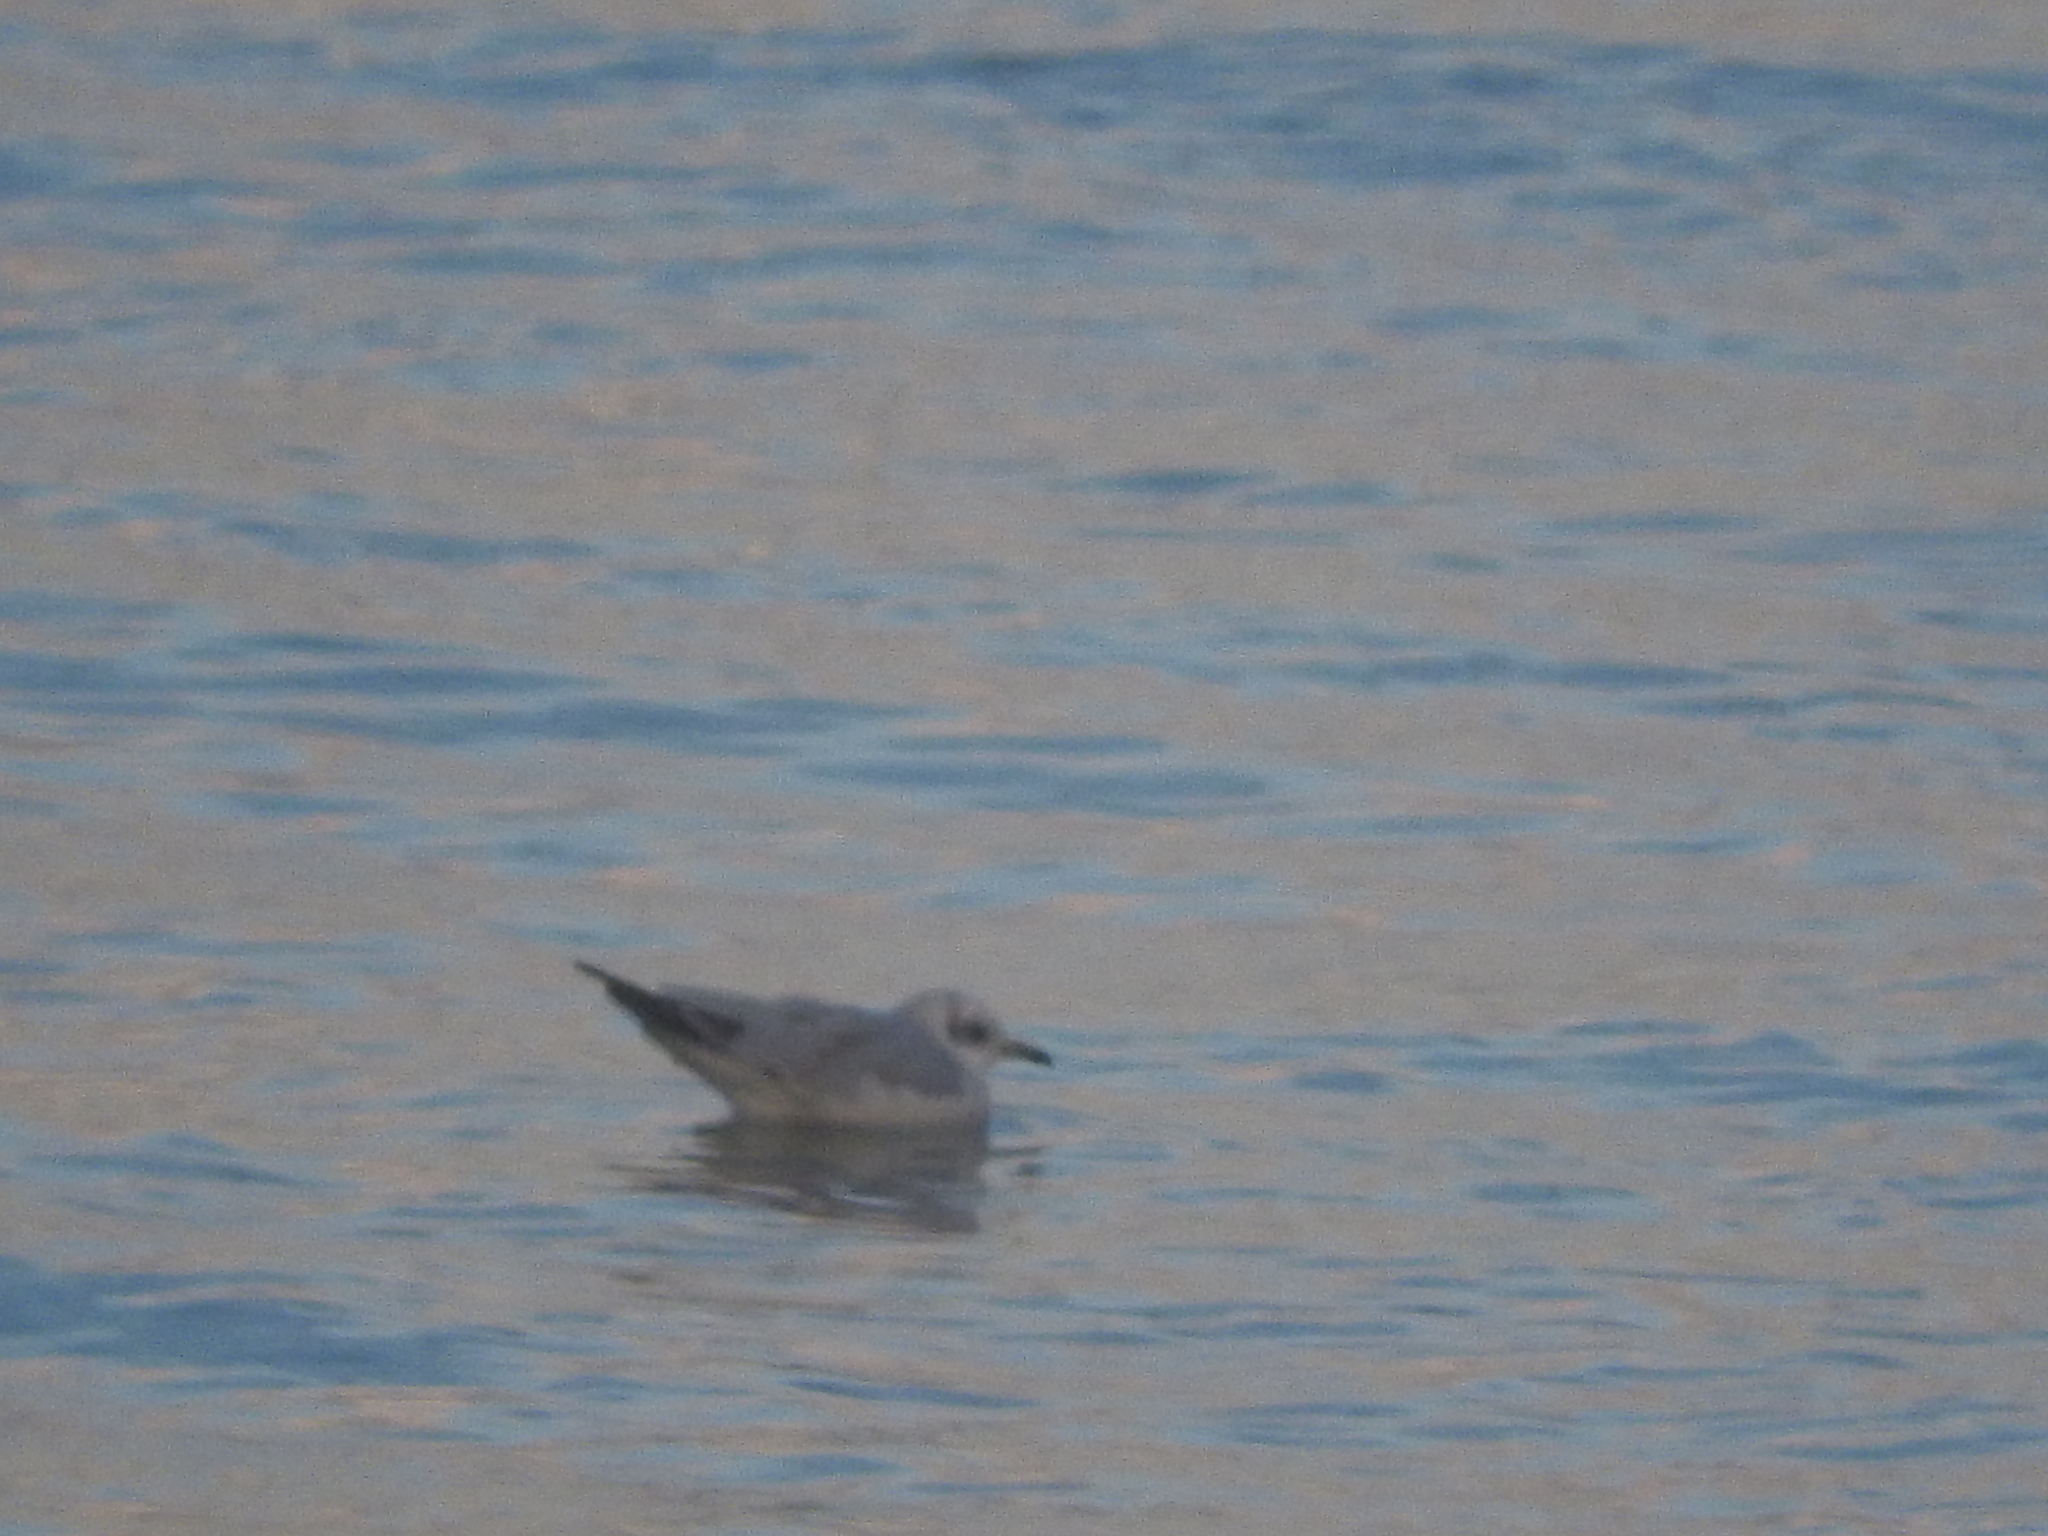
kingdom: Animalia
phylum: Chordata
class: Aves
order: Charadriiformes
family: Laridae
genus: Ichthyaetus
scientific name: Ichthyaetus melanocephalus
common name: Mediterranean gull
